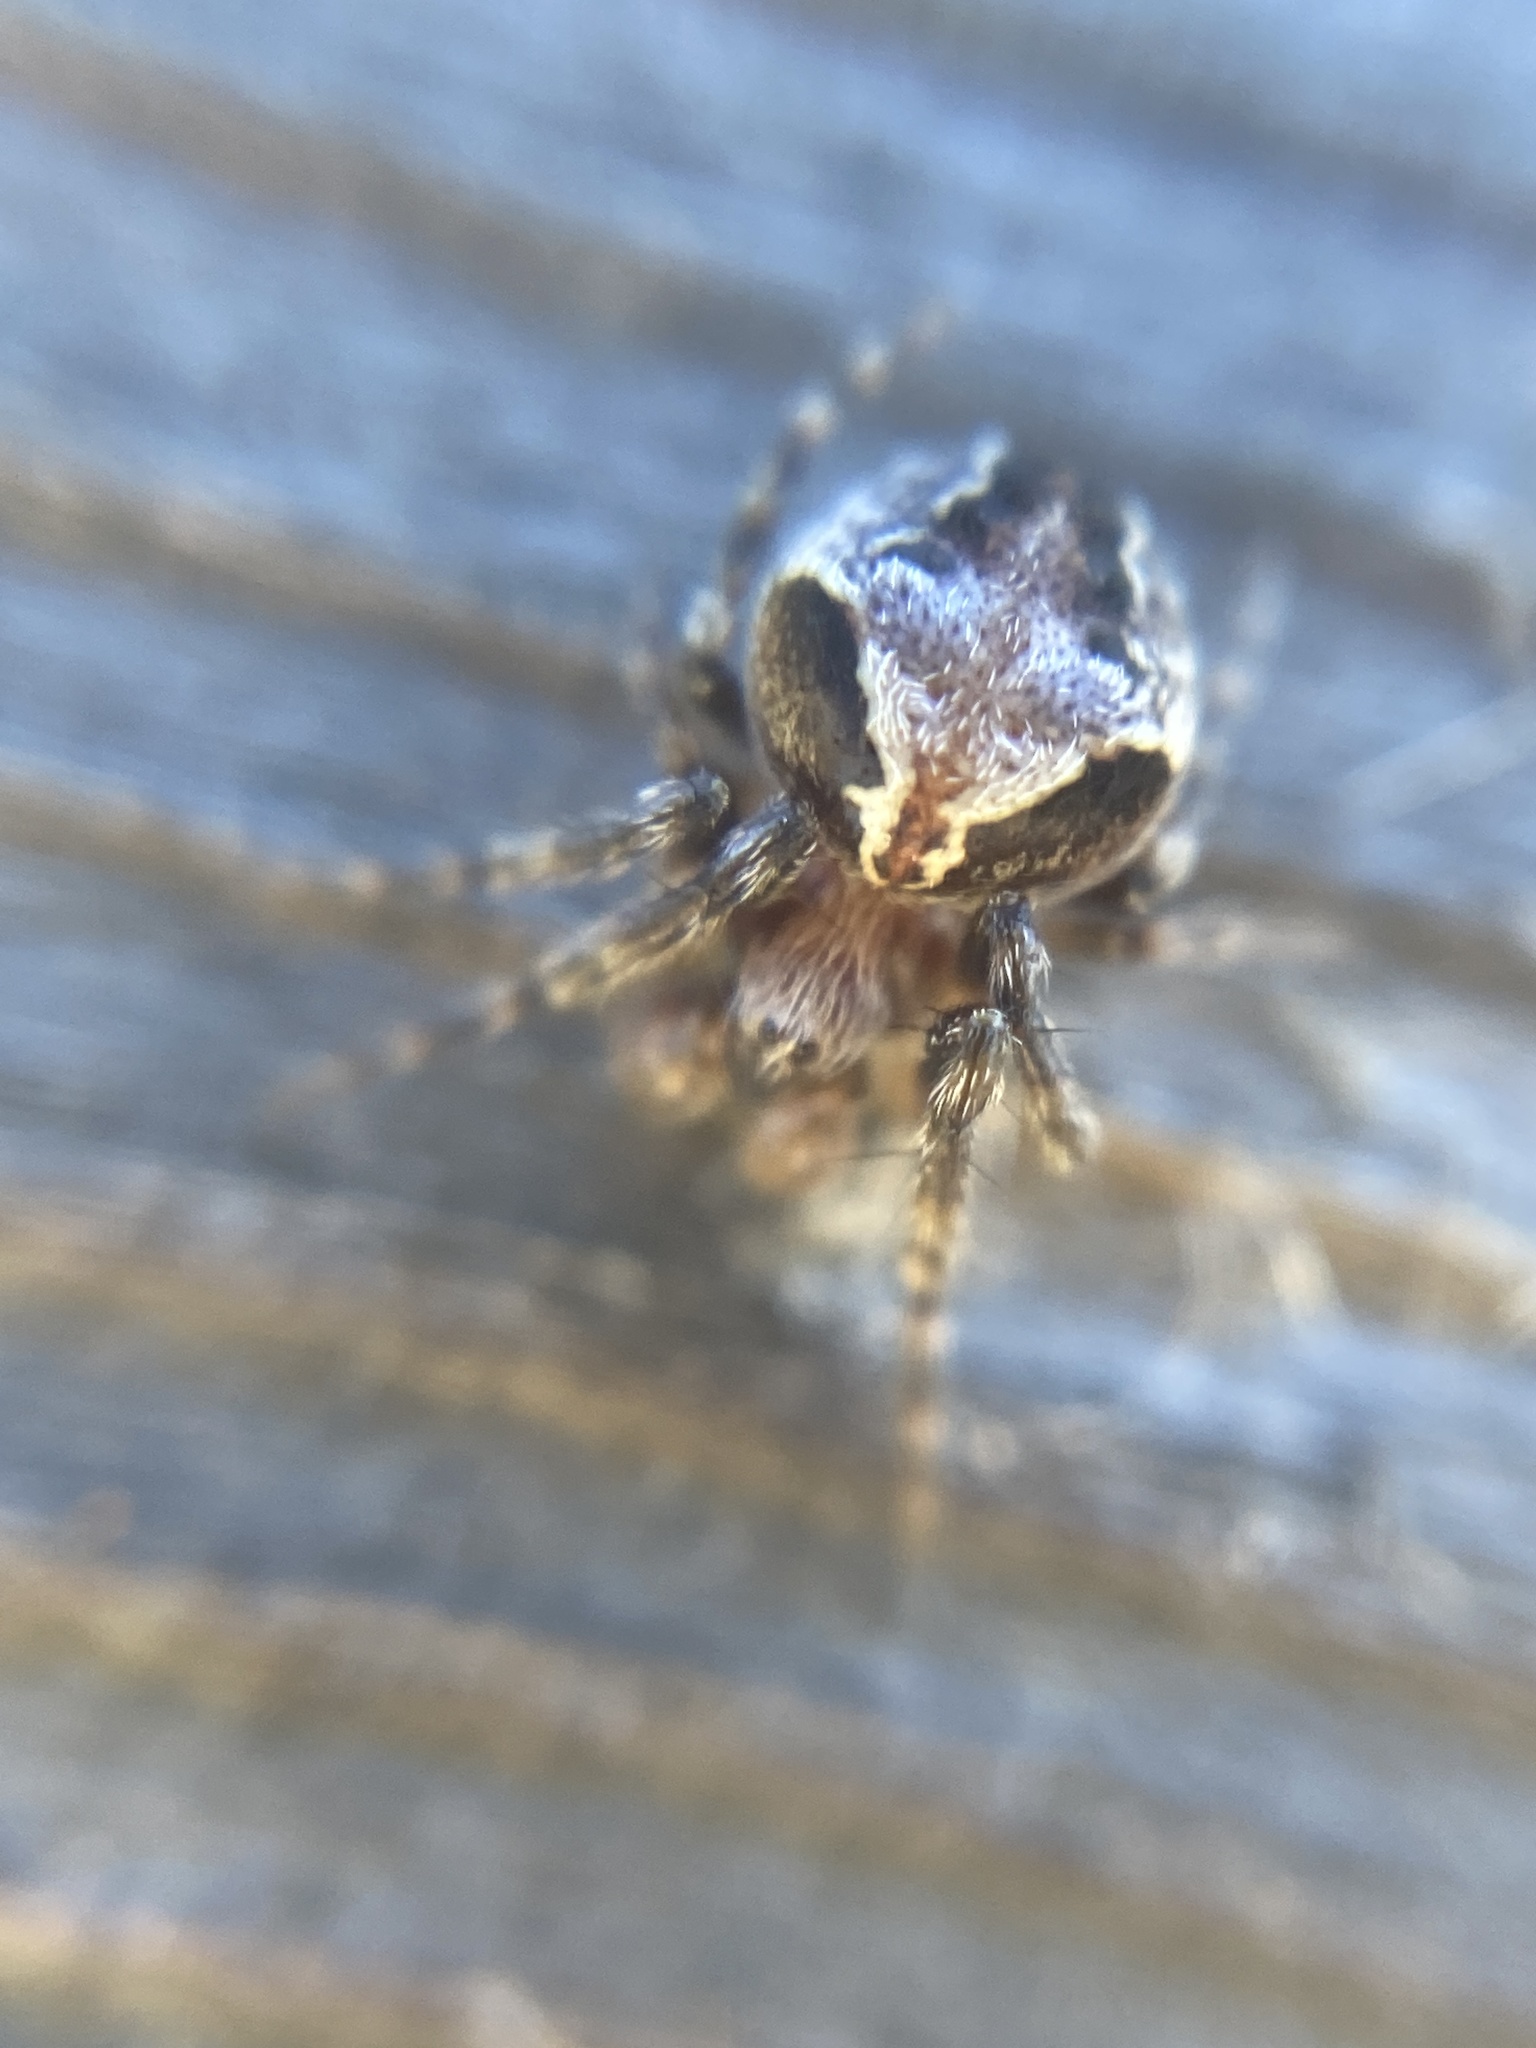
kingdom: Animalia
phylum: Arthropoda
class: Arachnida
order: Araneae
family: Araneidae
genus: Araneus
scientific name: Araneus sturmi
